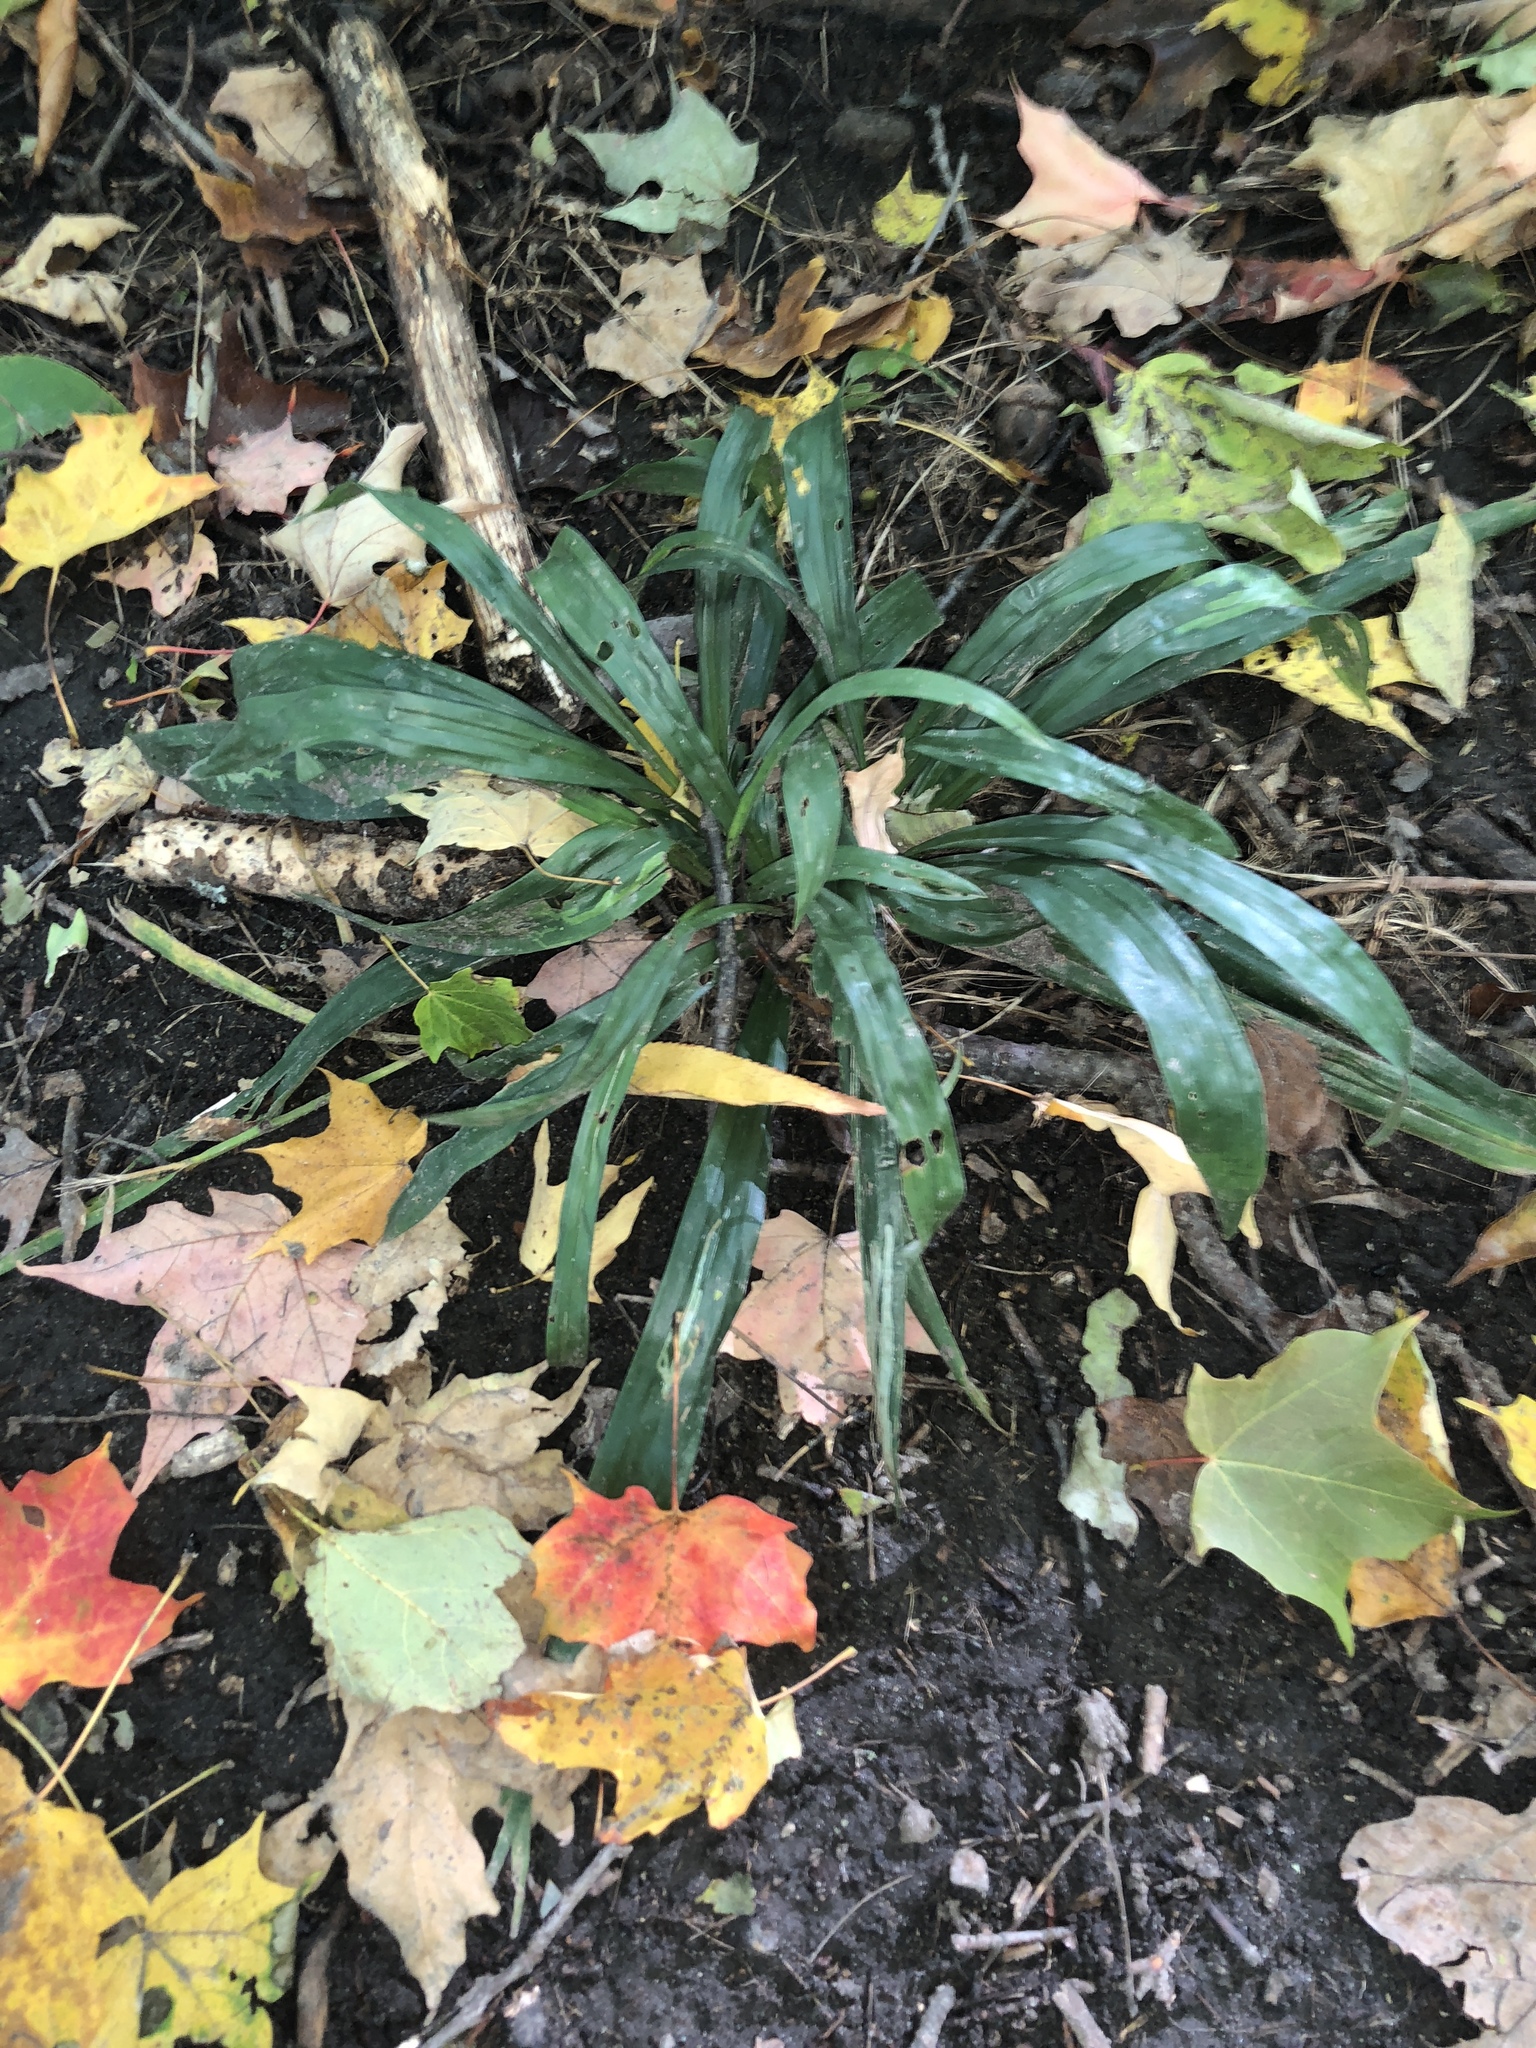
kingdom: Plantae
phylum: Tracheophyta
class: Liliopsida
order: Poales
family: Cyperaceae
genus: Carex
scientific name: Carex albursina
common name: Blunt-scale wood sedge
